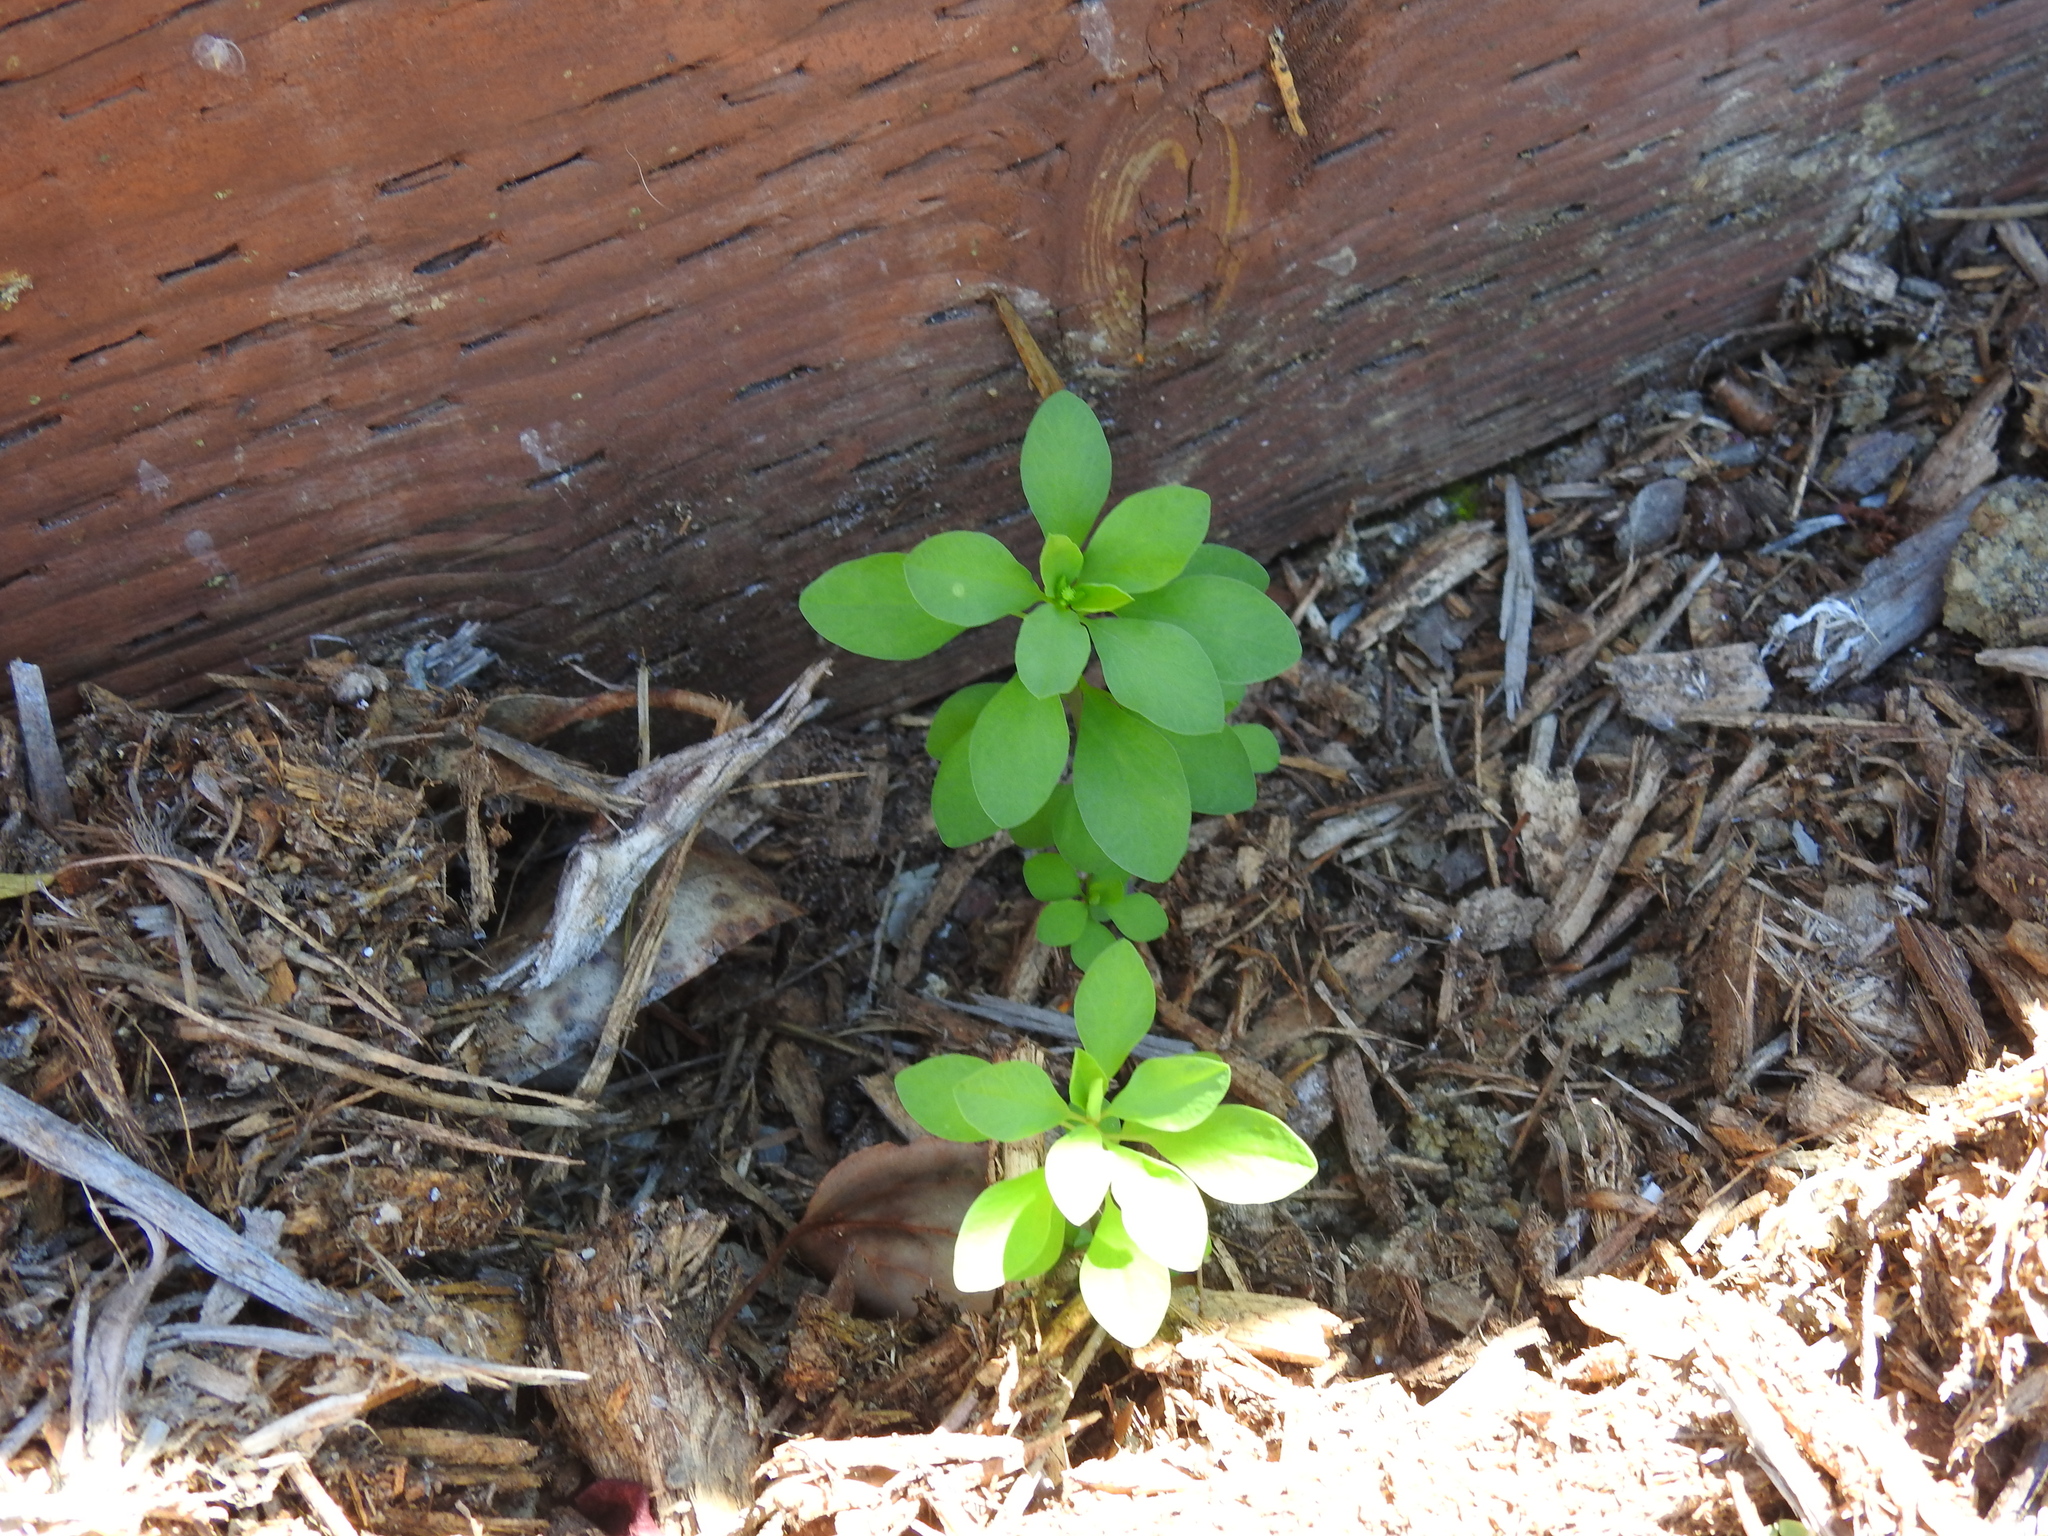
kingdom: Plantae
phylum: Tracheophyta
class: Magnoliopsida
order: Malpighiales
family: Euphorbiaceae
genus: Euphorbia
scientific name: Euphorbia peplus
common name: Petty spurge
